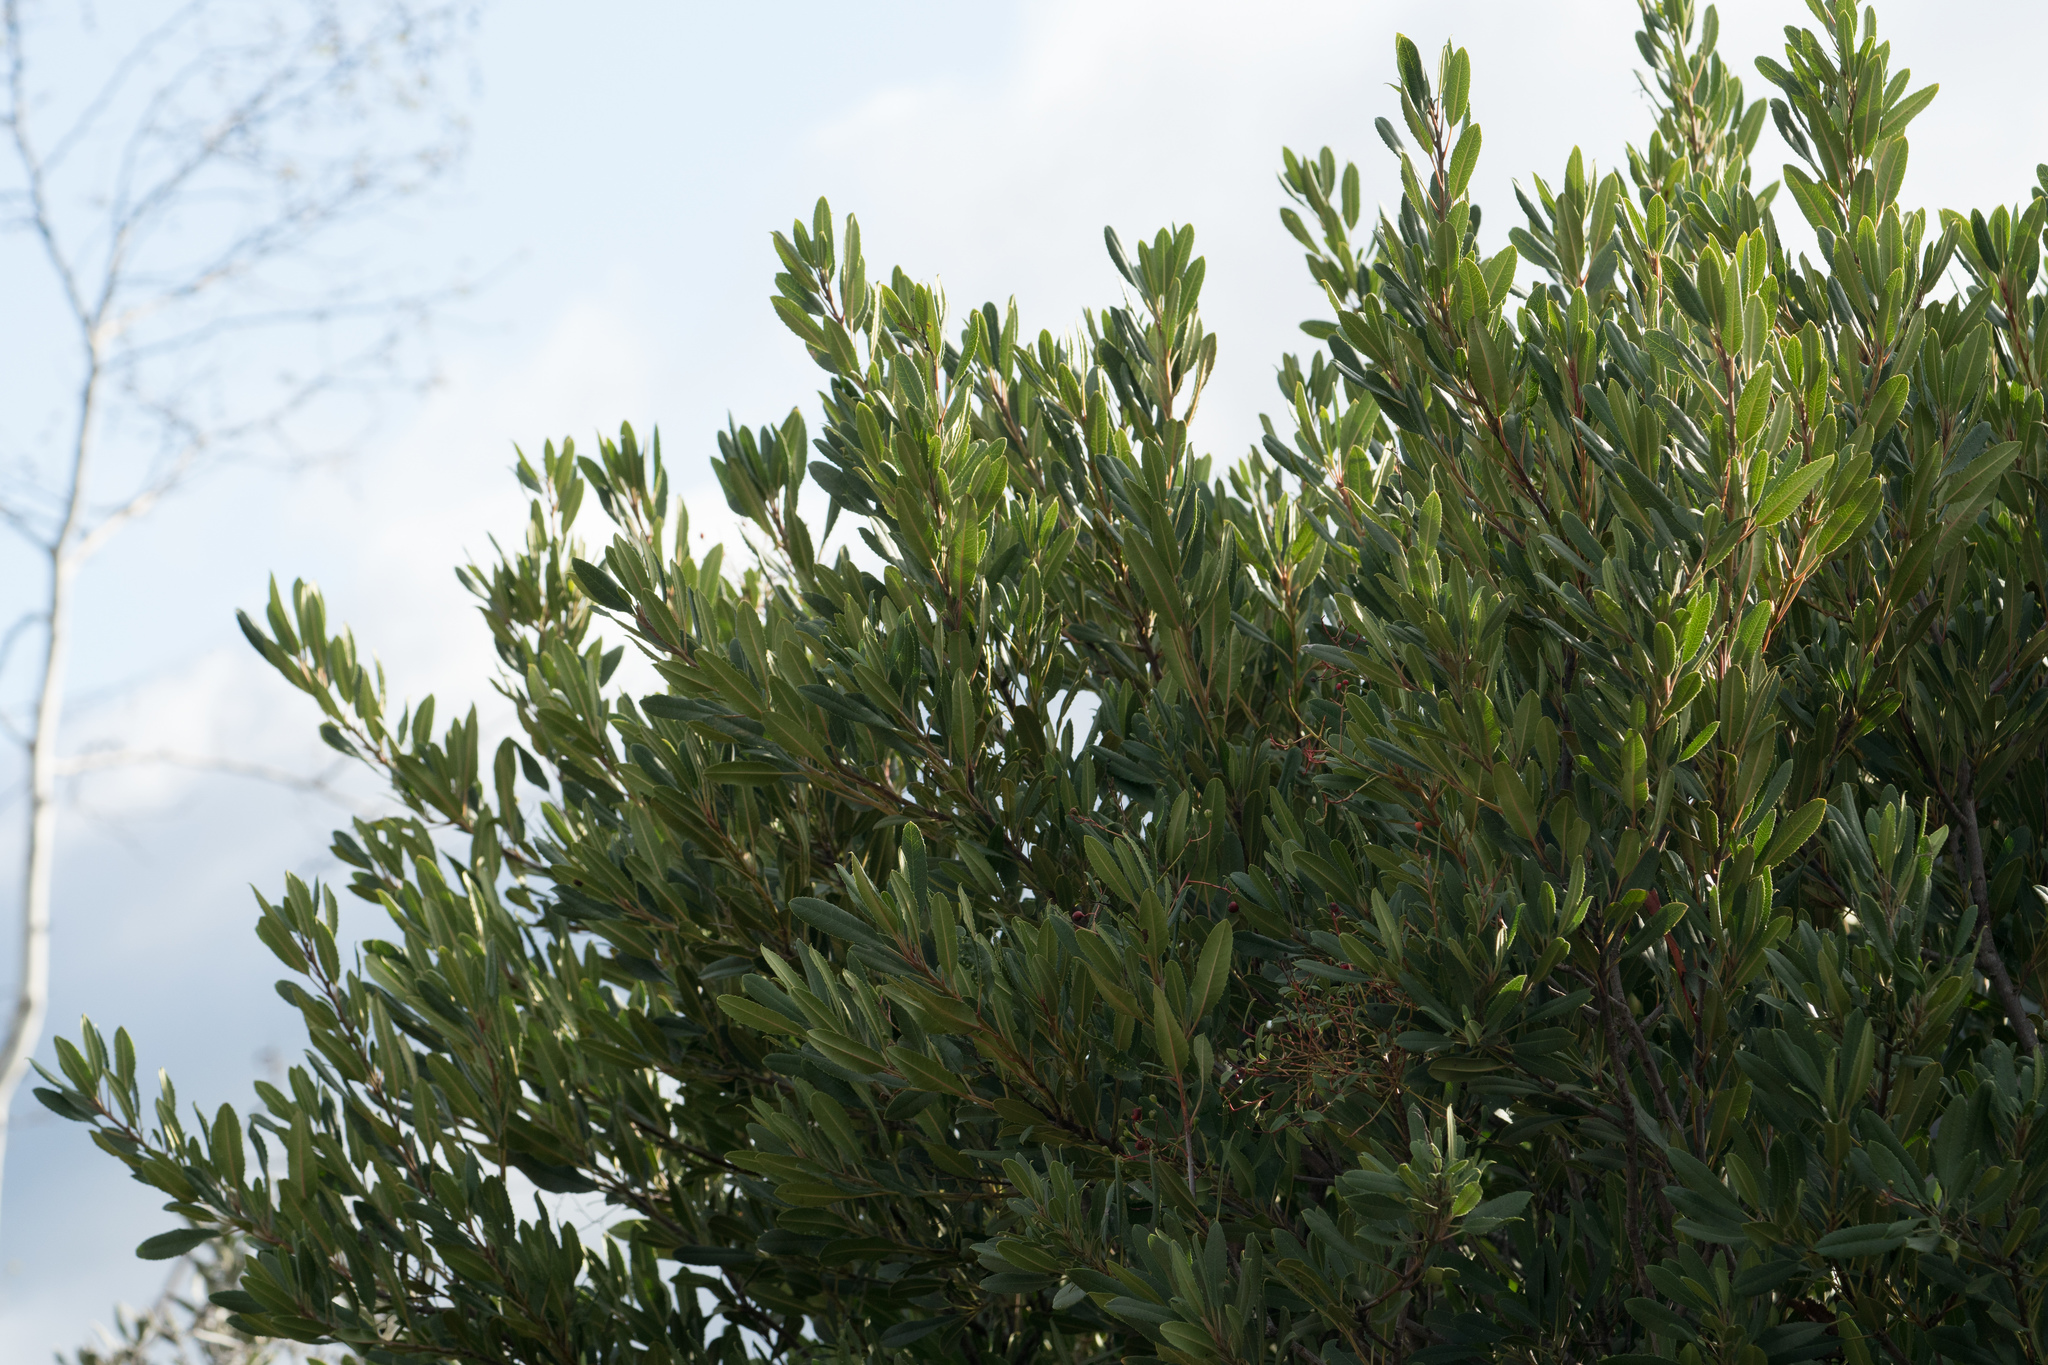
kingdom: Plantae
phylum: Tracheophyta
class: Magnoliopsida
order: Rosales
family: Rosaceae
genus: Heteromeles
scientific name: Heteromeles arbutifolia
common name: California-holly
